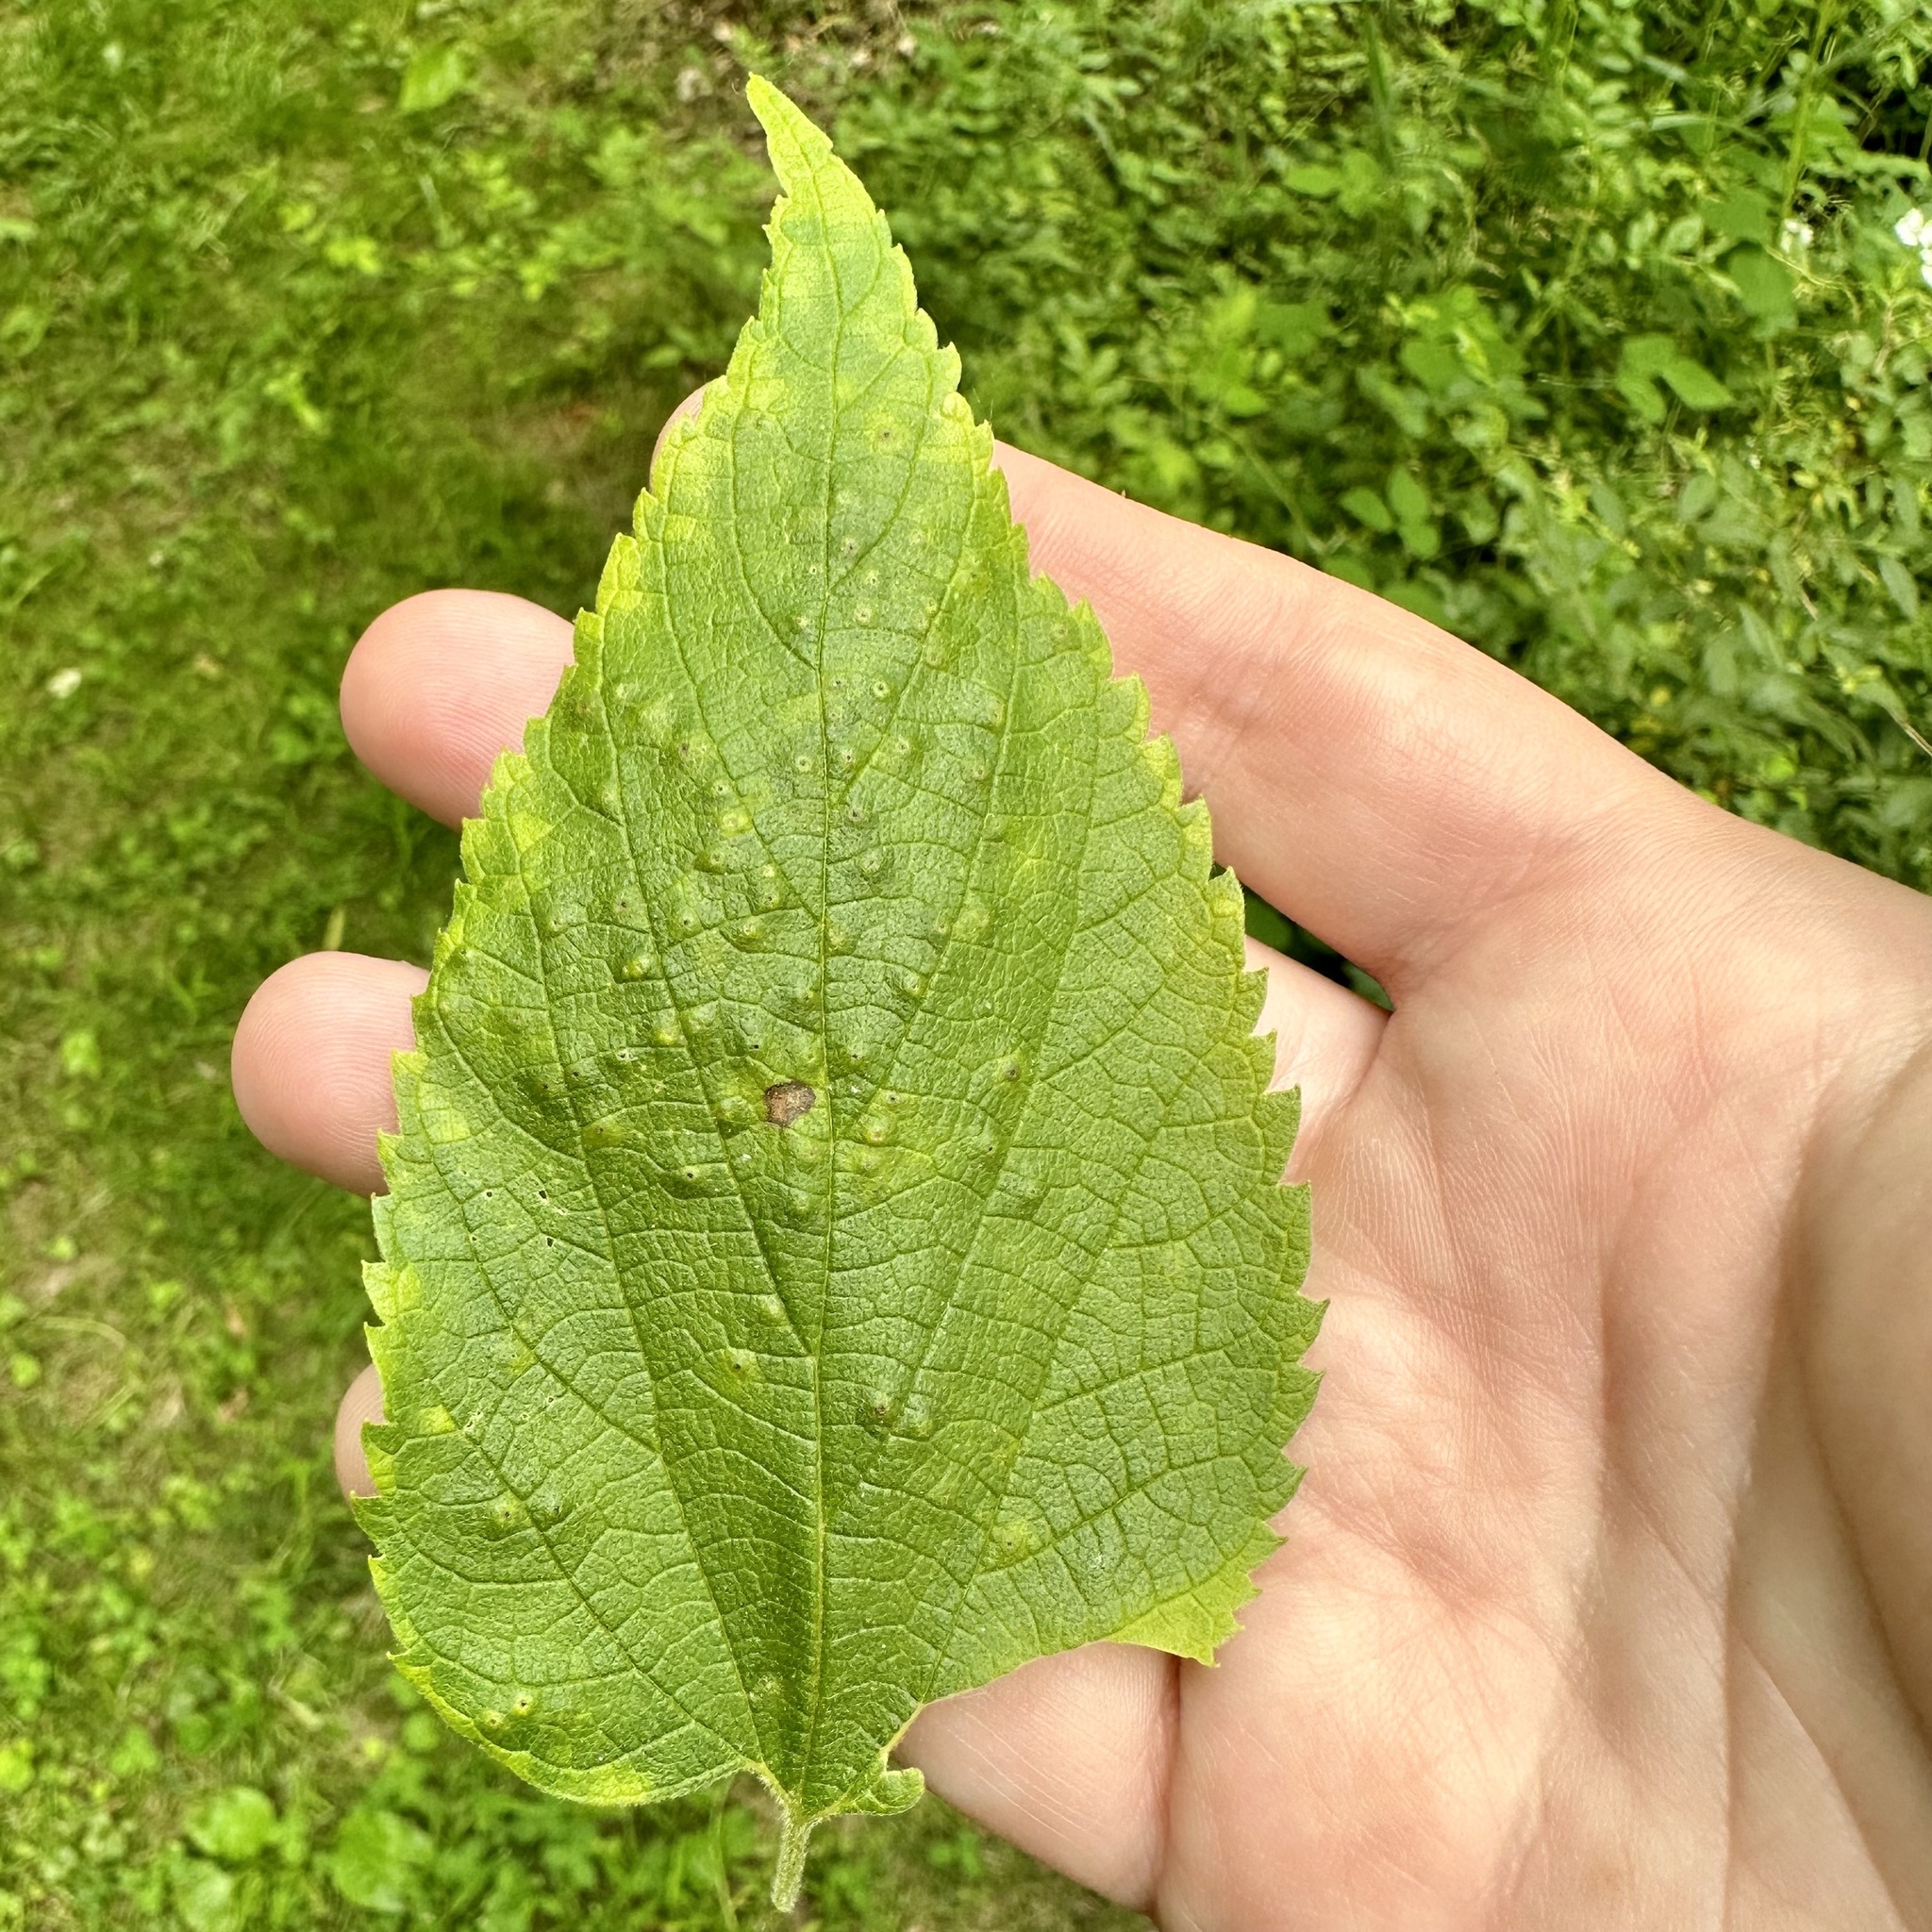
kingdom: Plantae
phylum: Tracheophyta
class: Magnoliopsida
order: Rosales
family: Cannabaceae
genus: Celtis
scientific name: Celtis occidentalis
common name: Common hackberry
